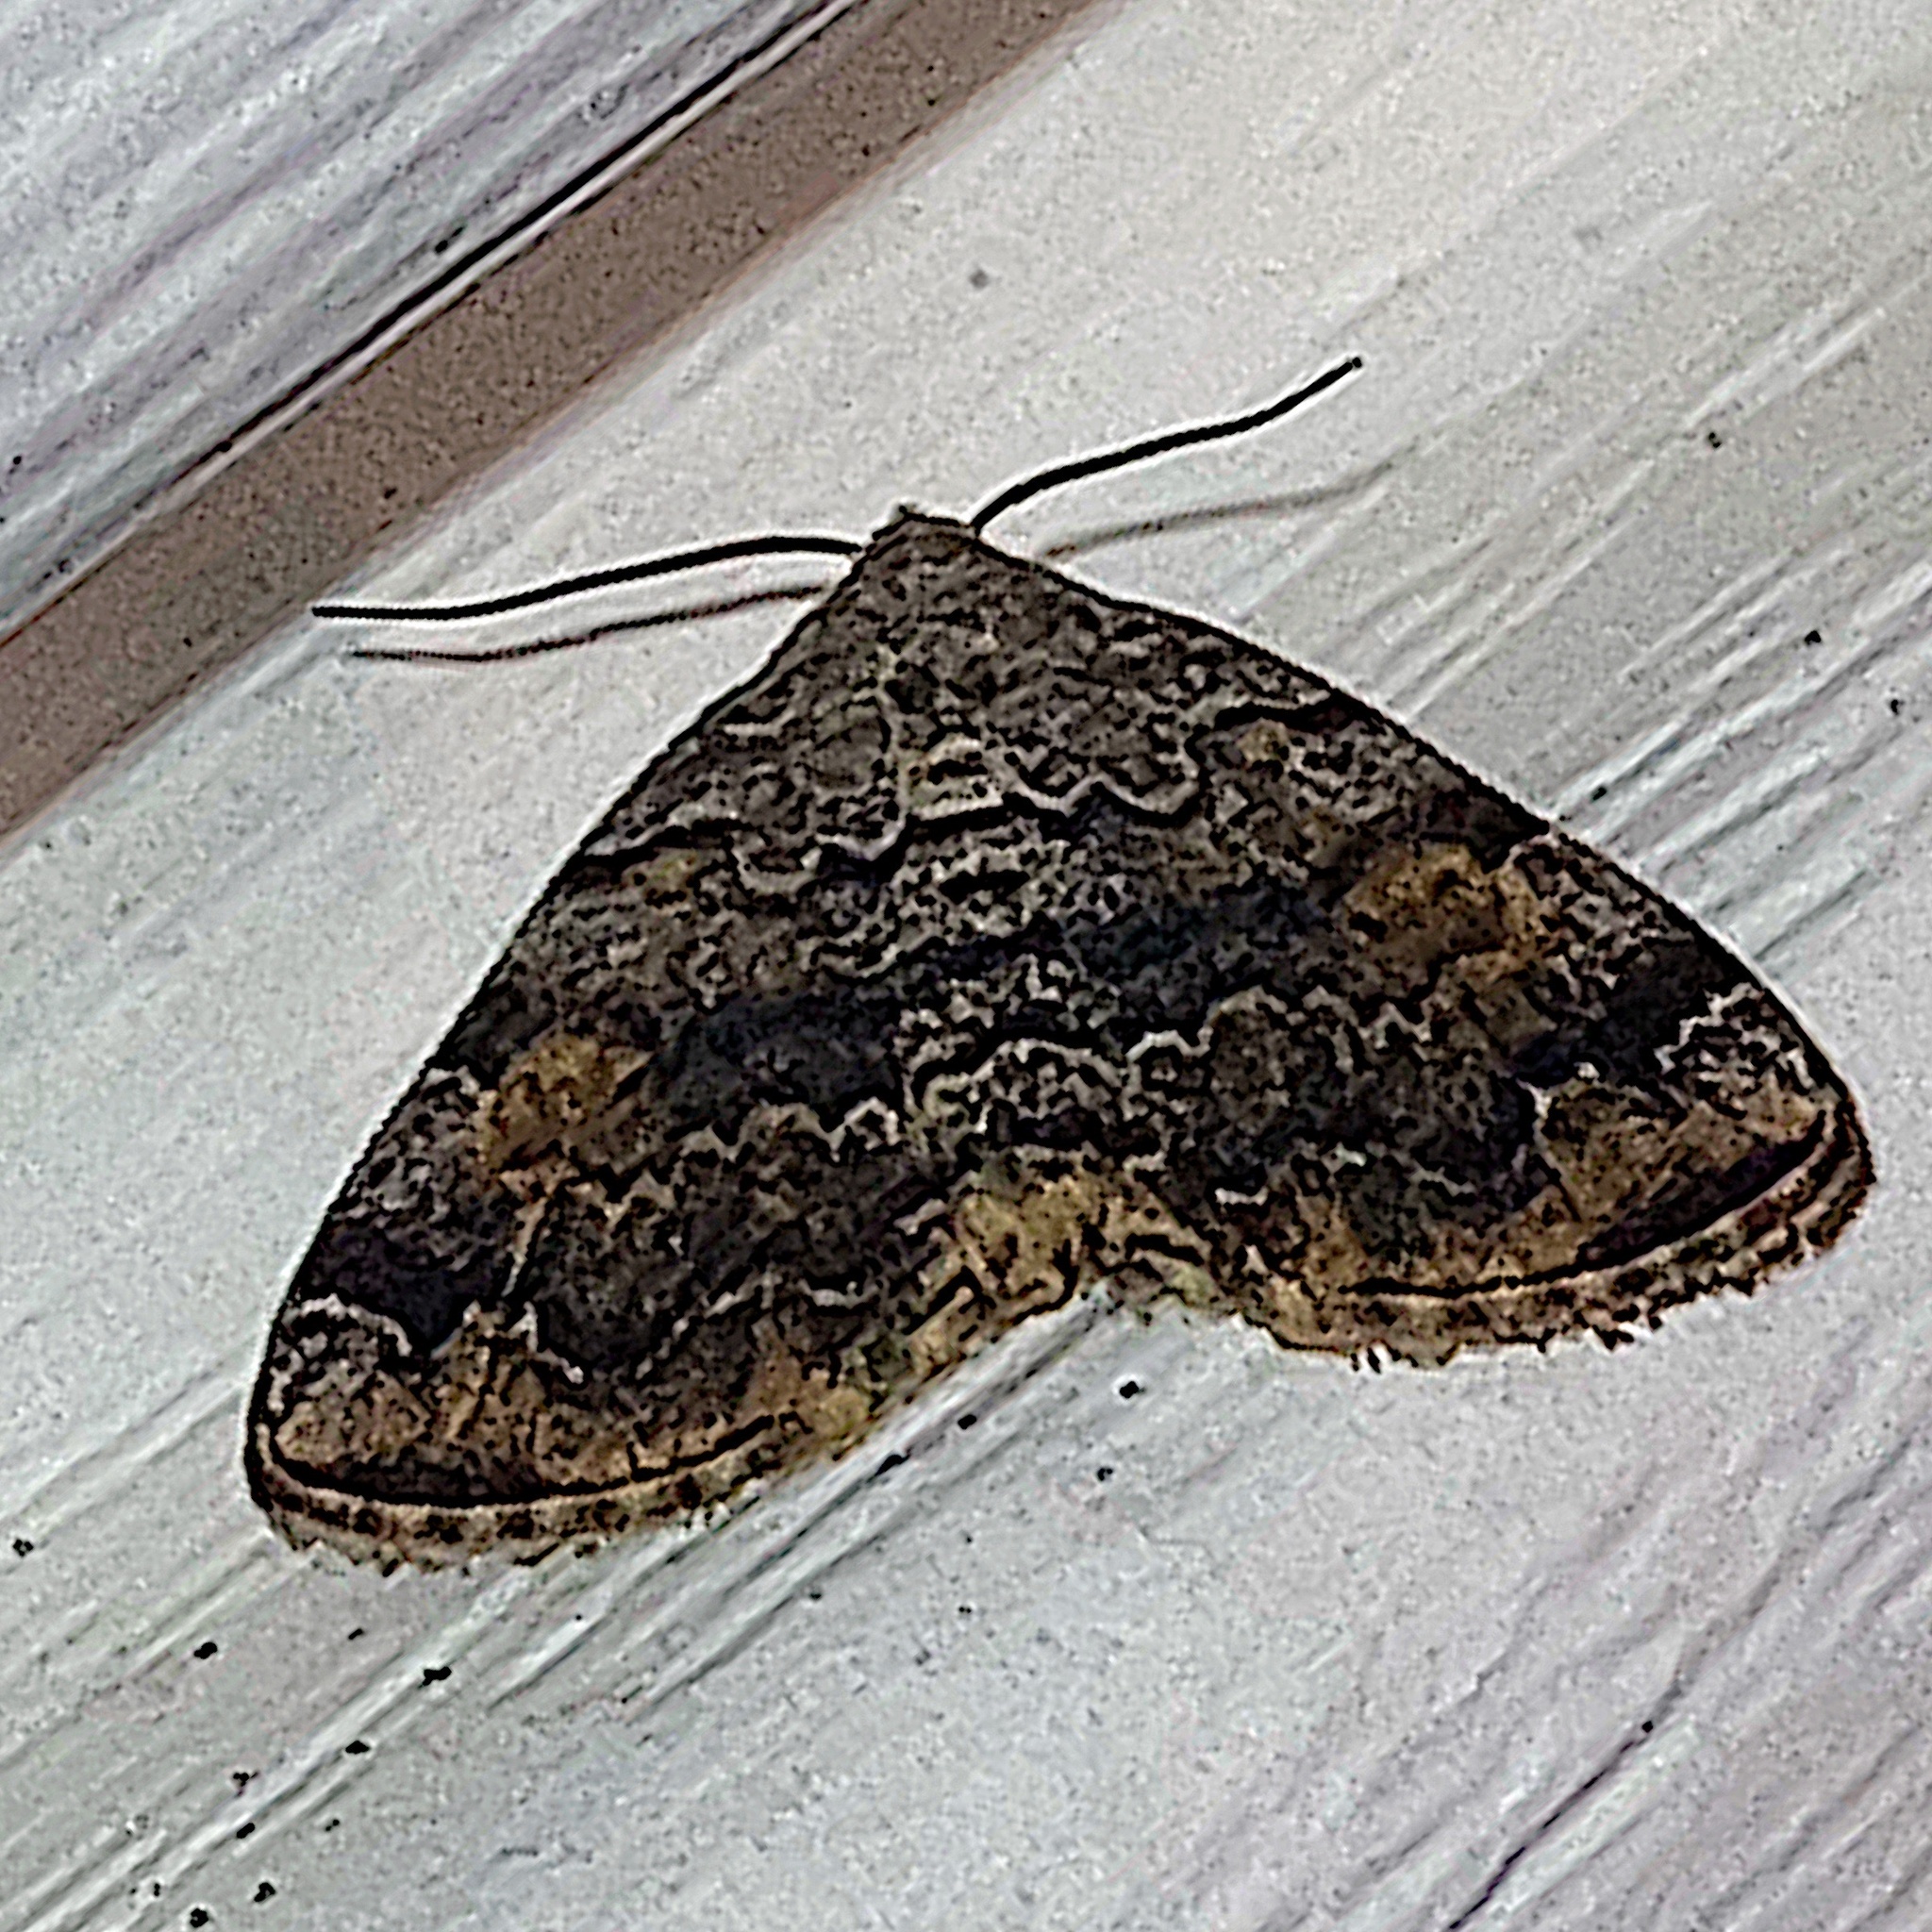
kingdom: Animalia
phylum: Arthropoda
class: Insecta
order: Lepidoptera
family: Erebidae
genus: Idia
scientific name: Idia americalis
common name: American idia moth
